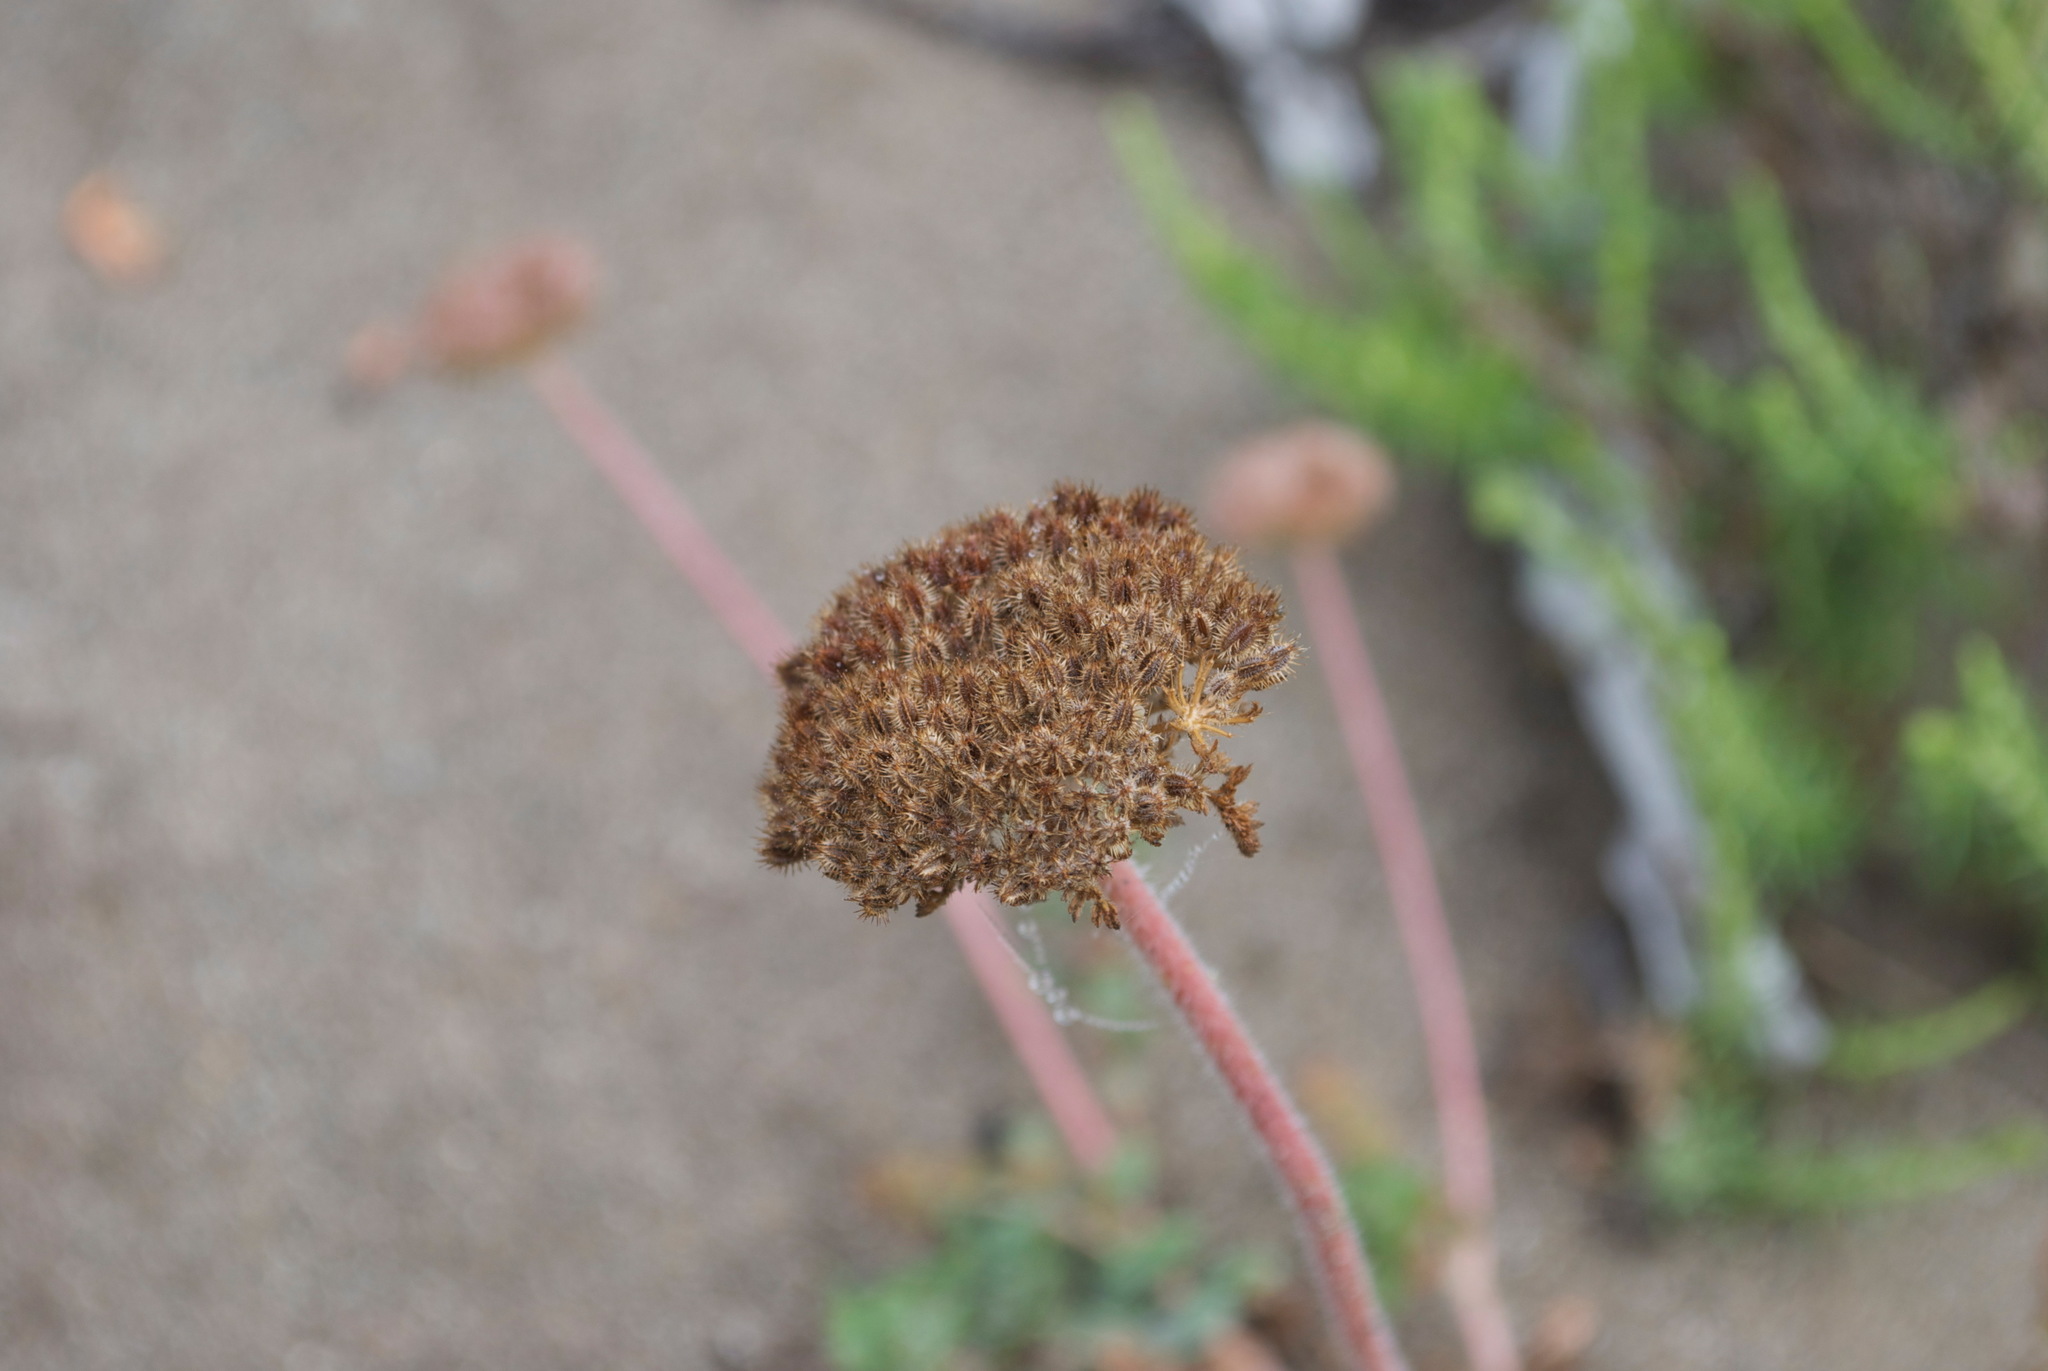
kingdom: Plantae
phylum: Tracheophyta
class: Magnoliopsida
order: Apiales
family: Apiaceae
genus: Daucus
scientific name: Daucus pusillus
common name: Southwest wild carrot
